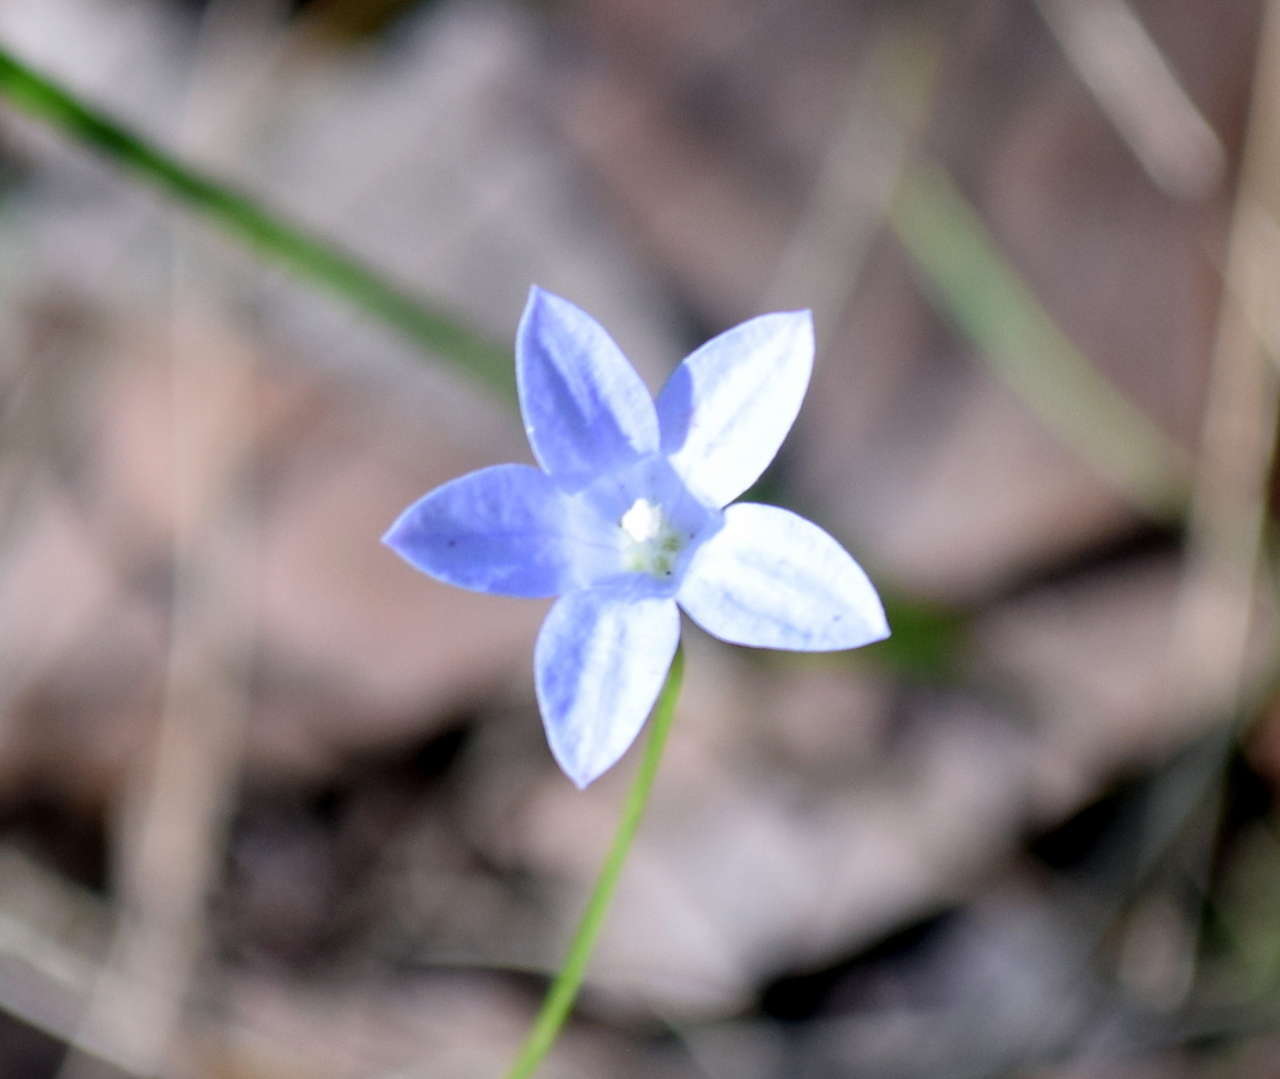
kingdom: Plantae
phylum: Tracheophyta
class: Magnoliopsida
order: Asterales
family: Campanulaceae
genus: Wahlenbergia
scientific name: Wahlenbergia gracilis
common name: Harebell
